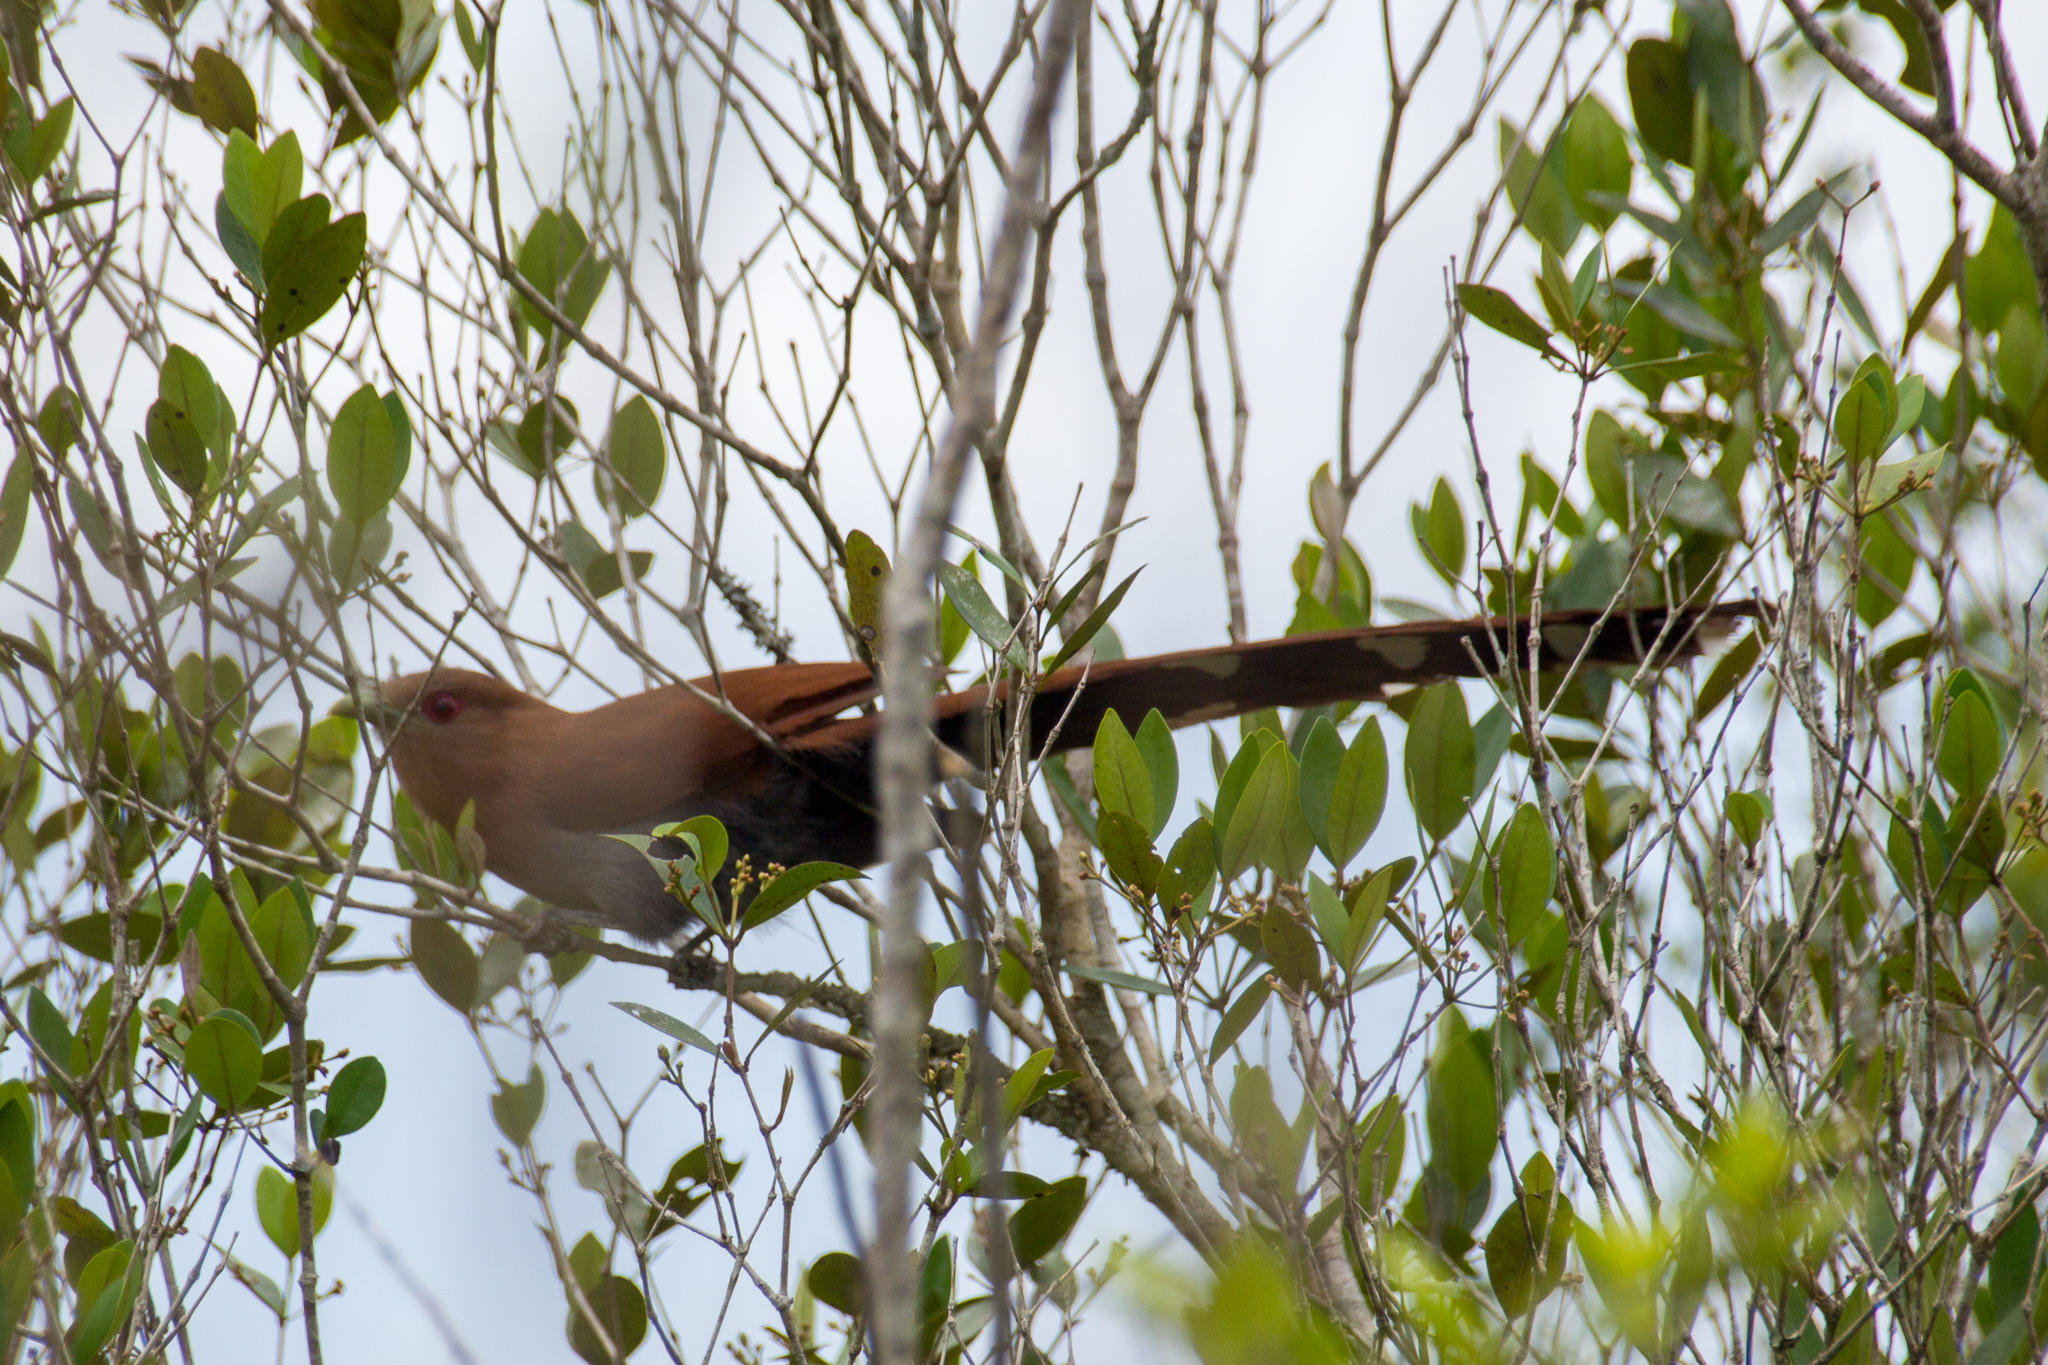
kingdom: Animalia
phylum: Chordata
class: Aves
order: Cuculiformes
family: Cuculidae
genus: Piaya
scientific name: Piaya cayana
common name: Squirrel cuckoo
